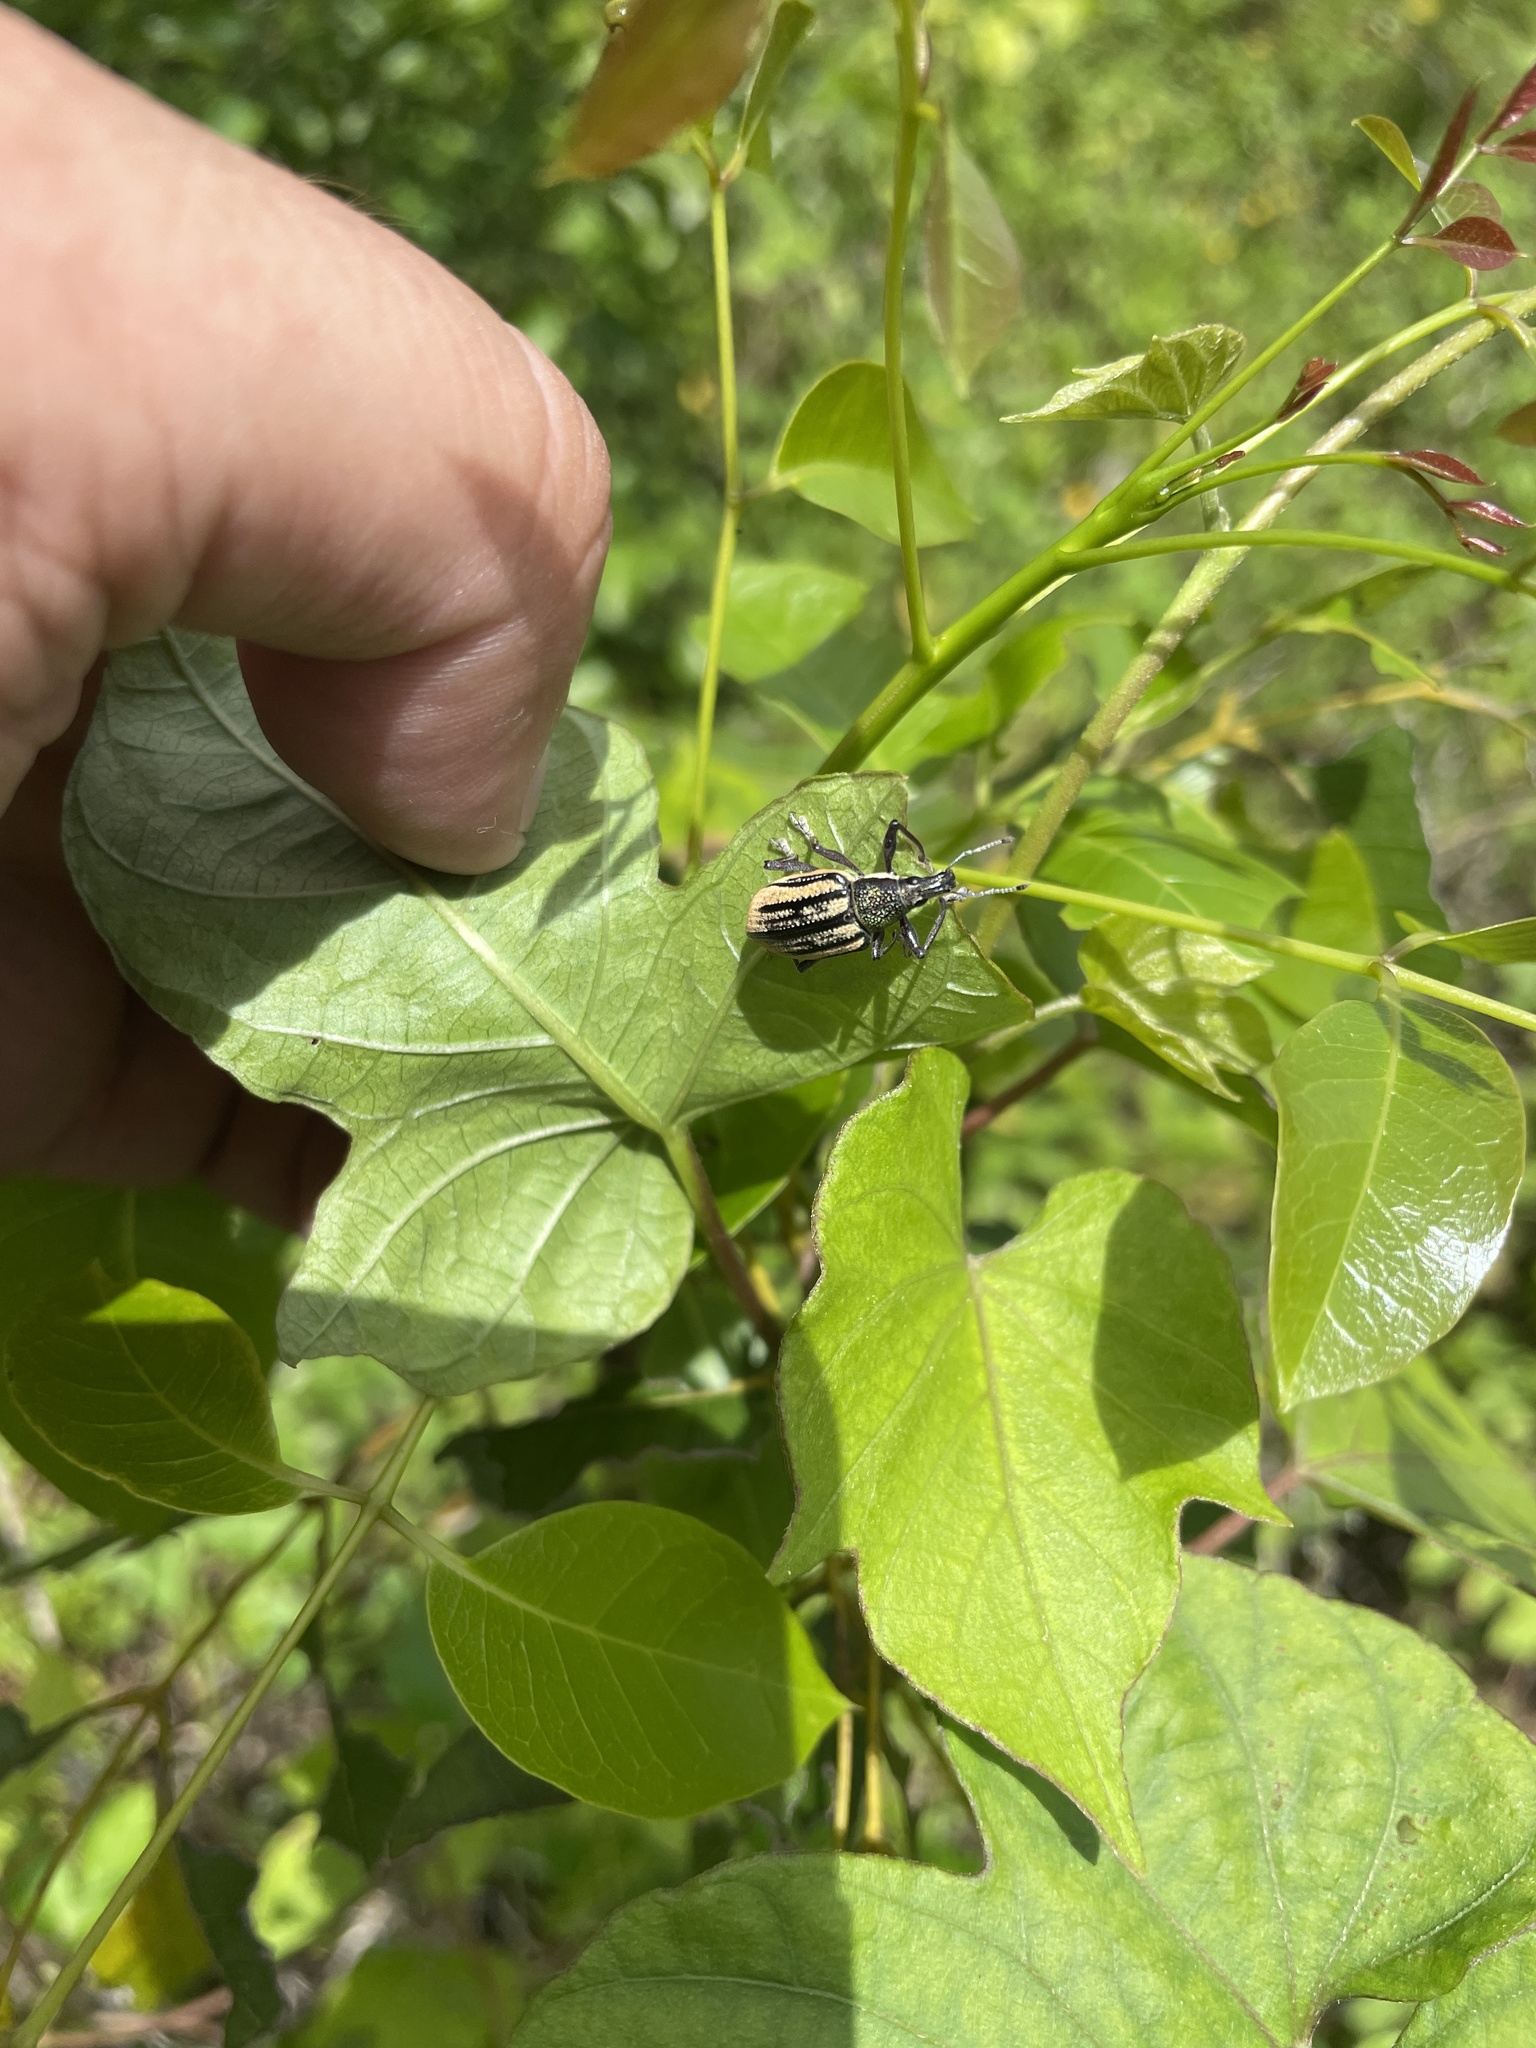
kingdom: Animalia
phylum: Arthropoda
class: Insecta
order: Coleoptera
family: Curculionidae
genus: Diaprepes
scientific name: Diaprepes abbreviatus
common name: Root weevil
